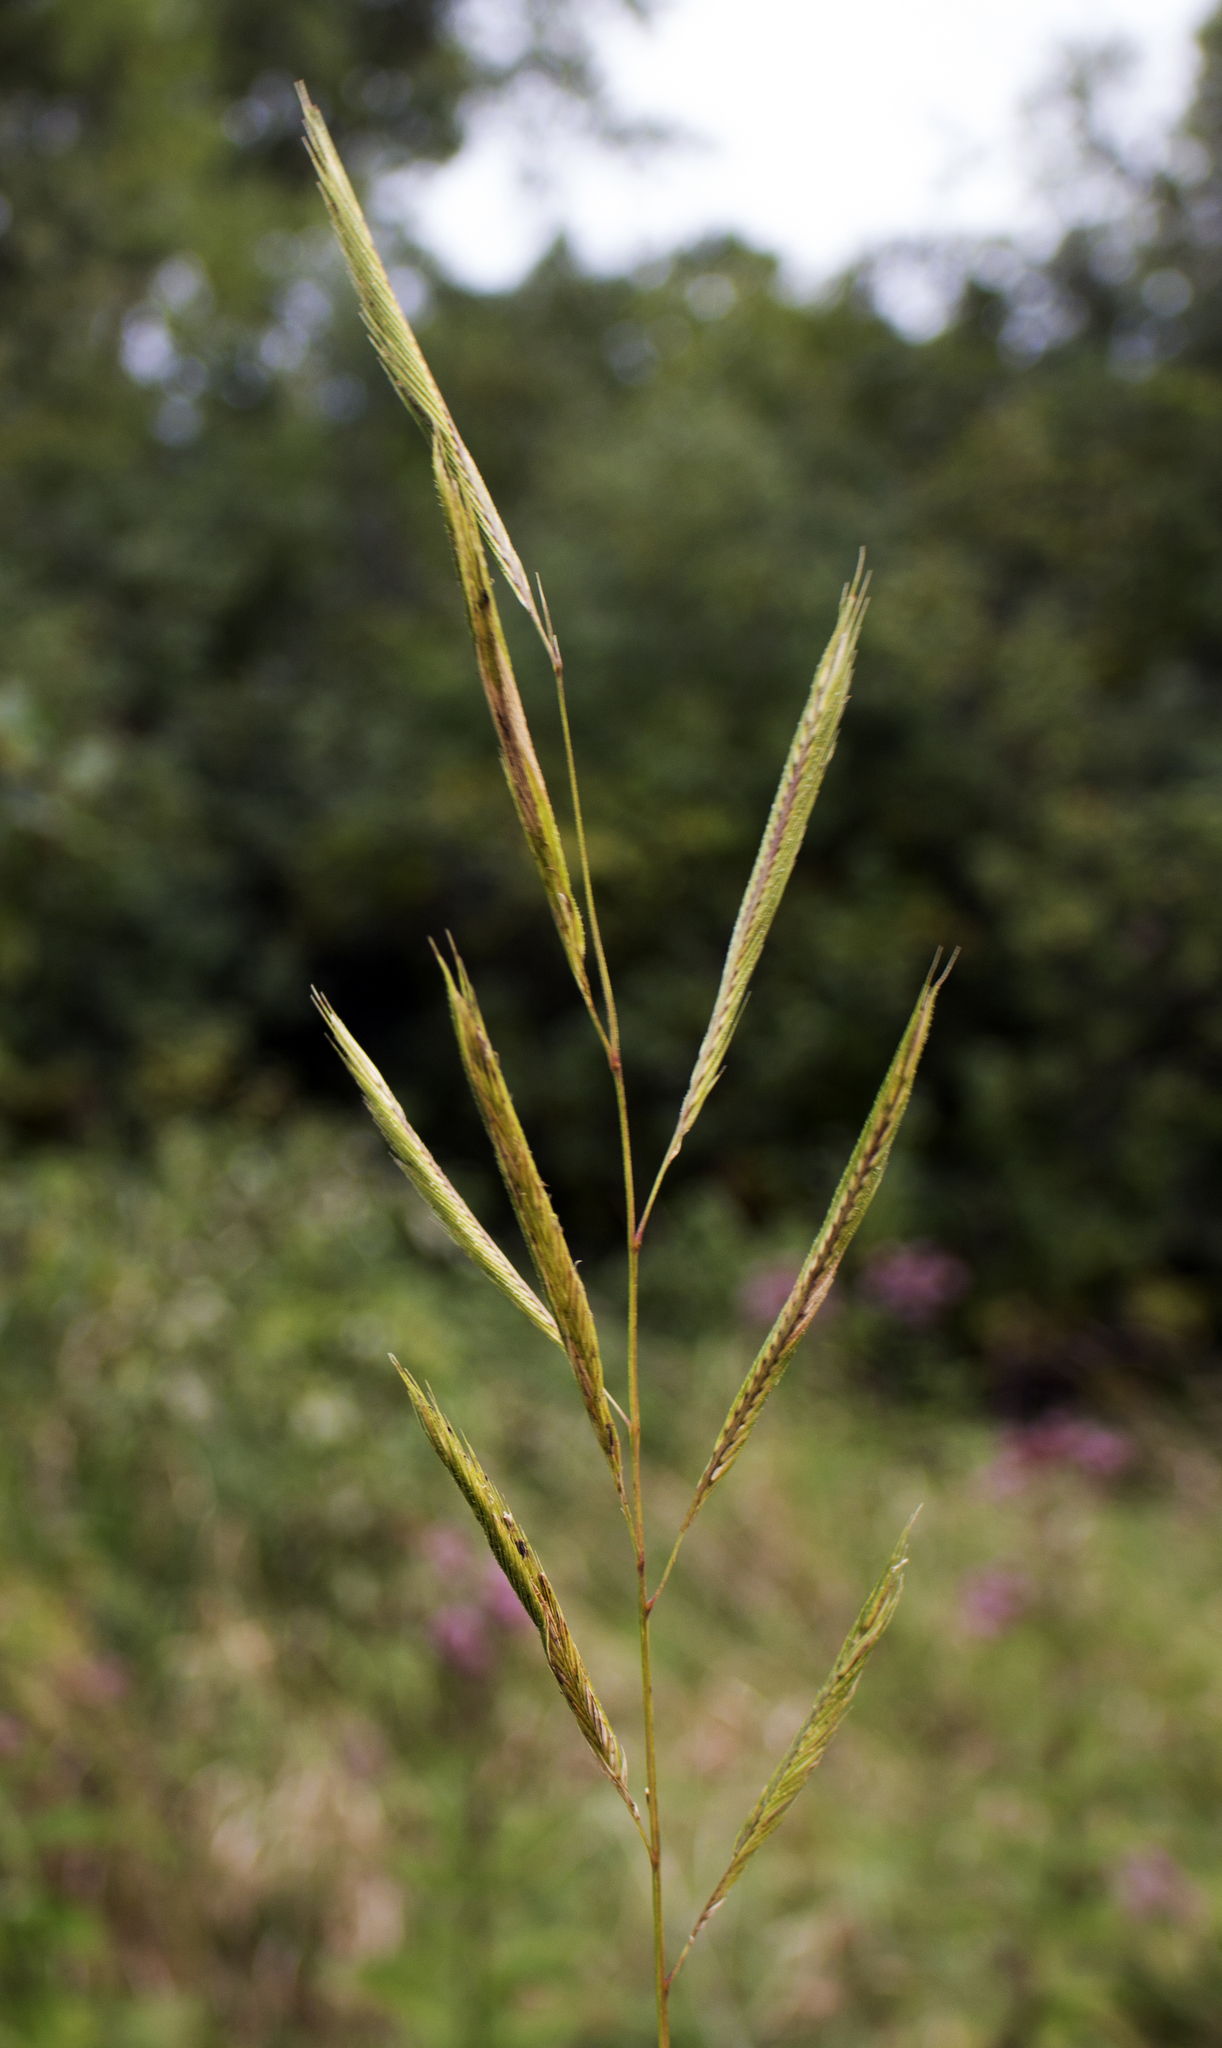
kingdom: Plantae
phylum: Tracheophyta
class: Liliopsida
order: Poales
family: Poaceae
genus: Sporobolus
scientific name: Sporobolus michauxianus
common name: Freshwater cordgrass
